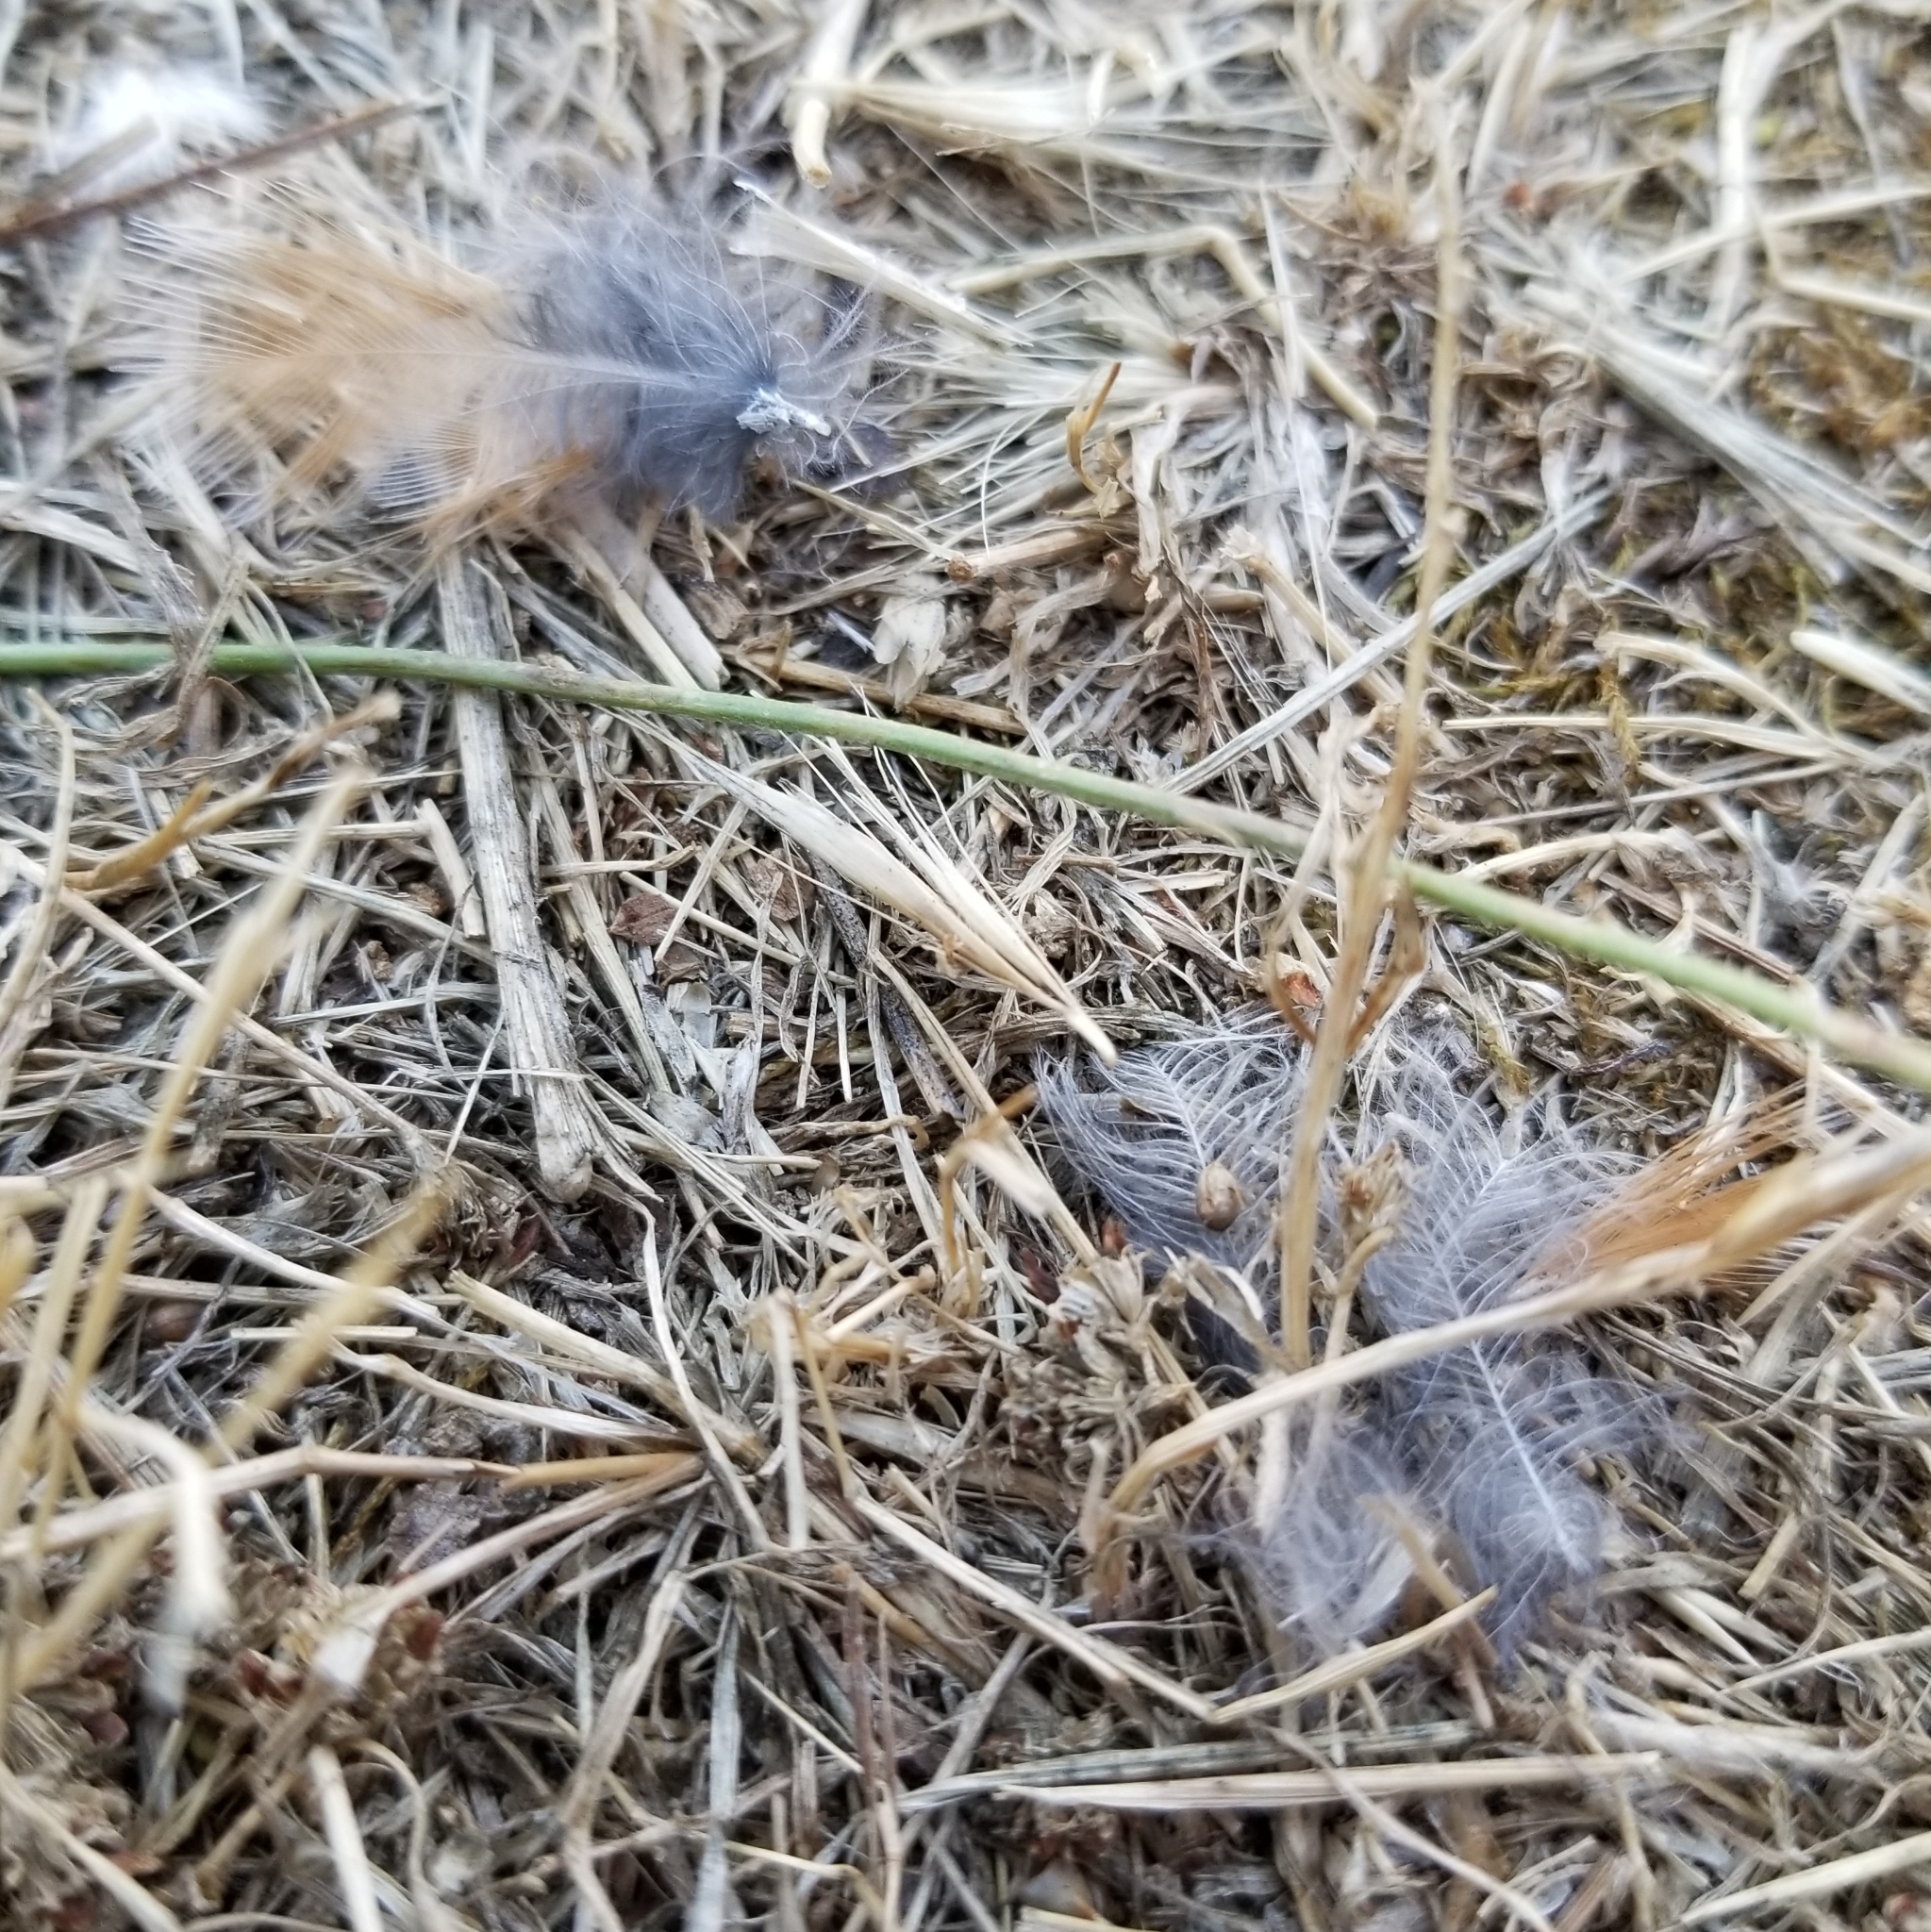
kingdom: Animalia
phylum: Chordata
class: Aves
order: Passeriformes
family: Turdidae
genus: Turdus
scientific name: Turdus migratorius
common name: American robin
